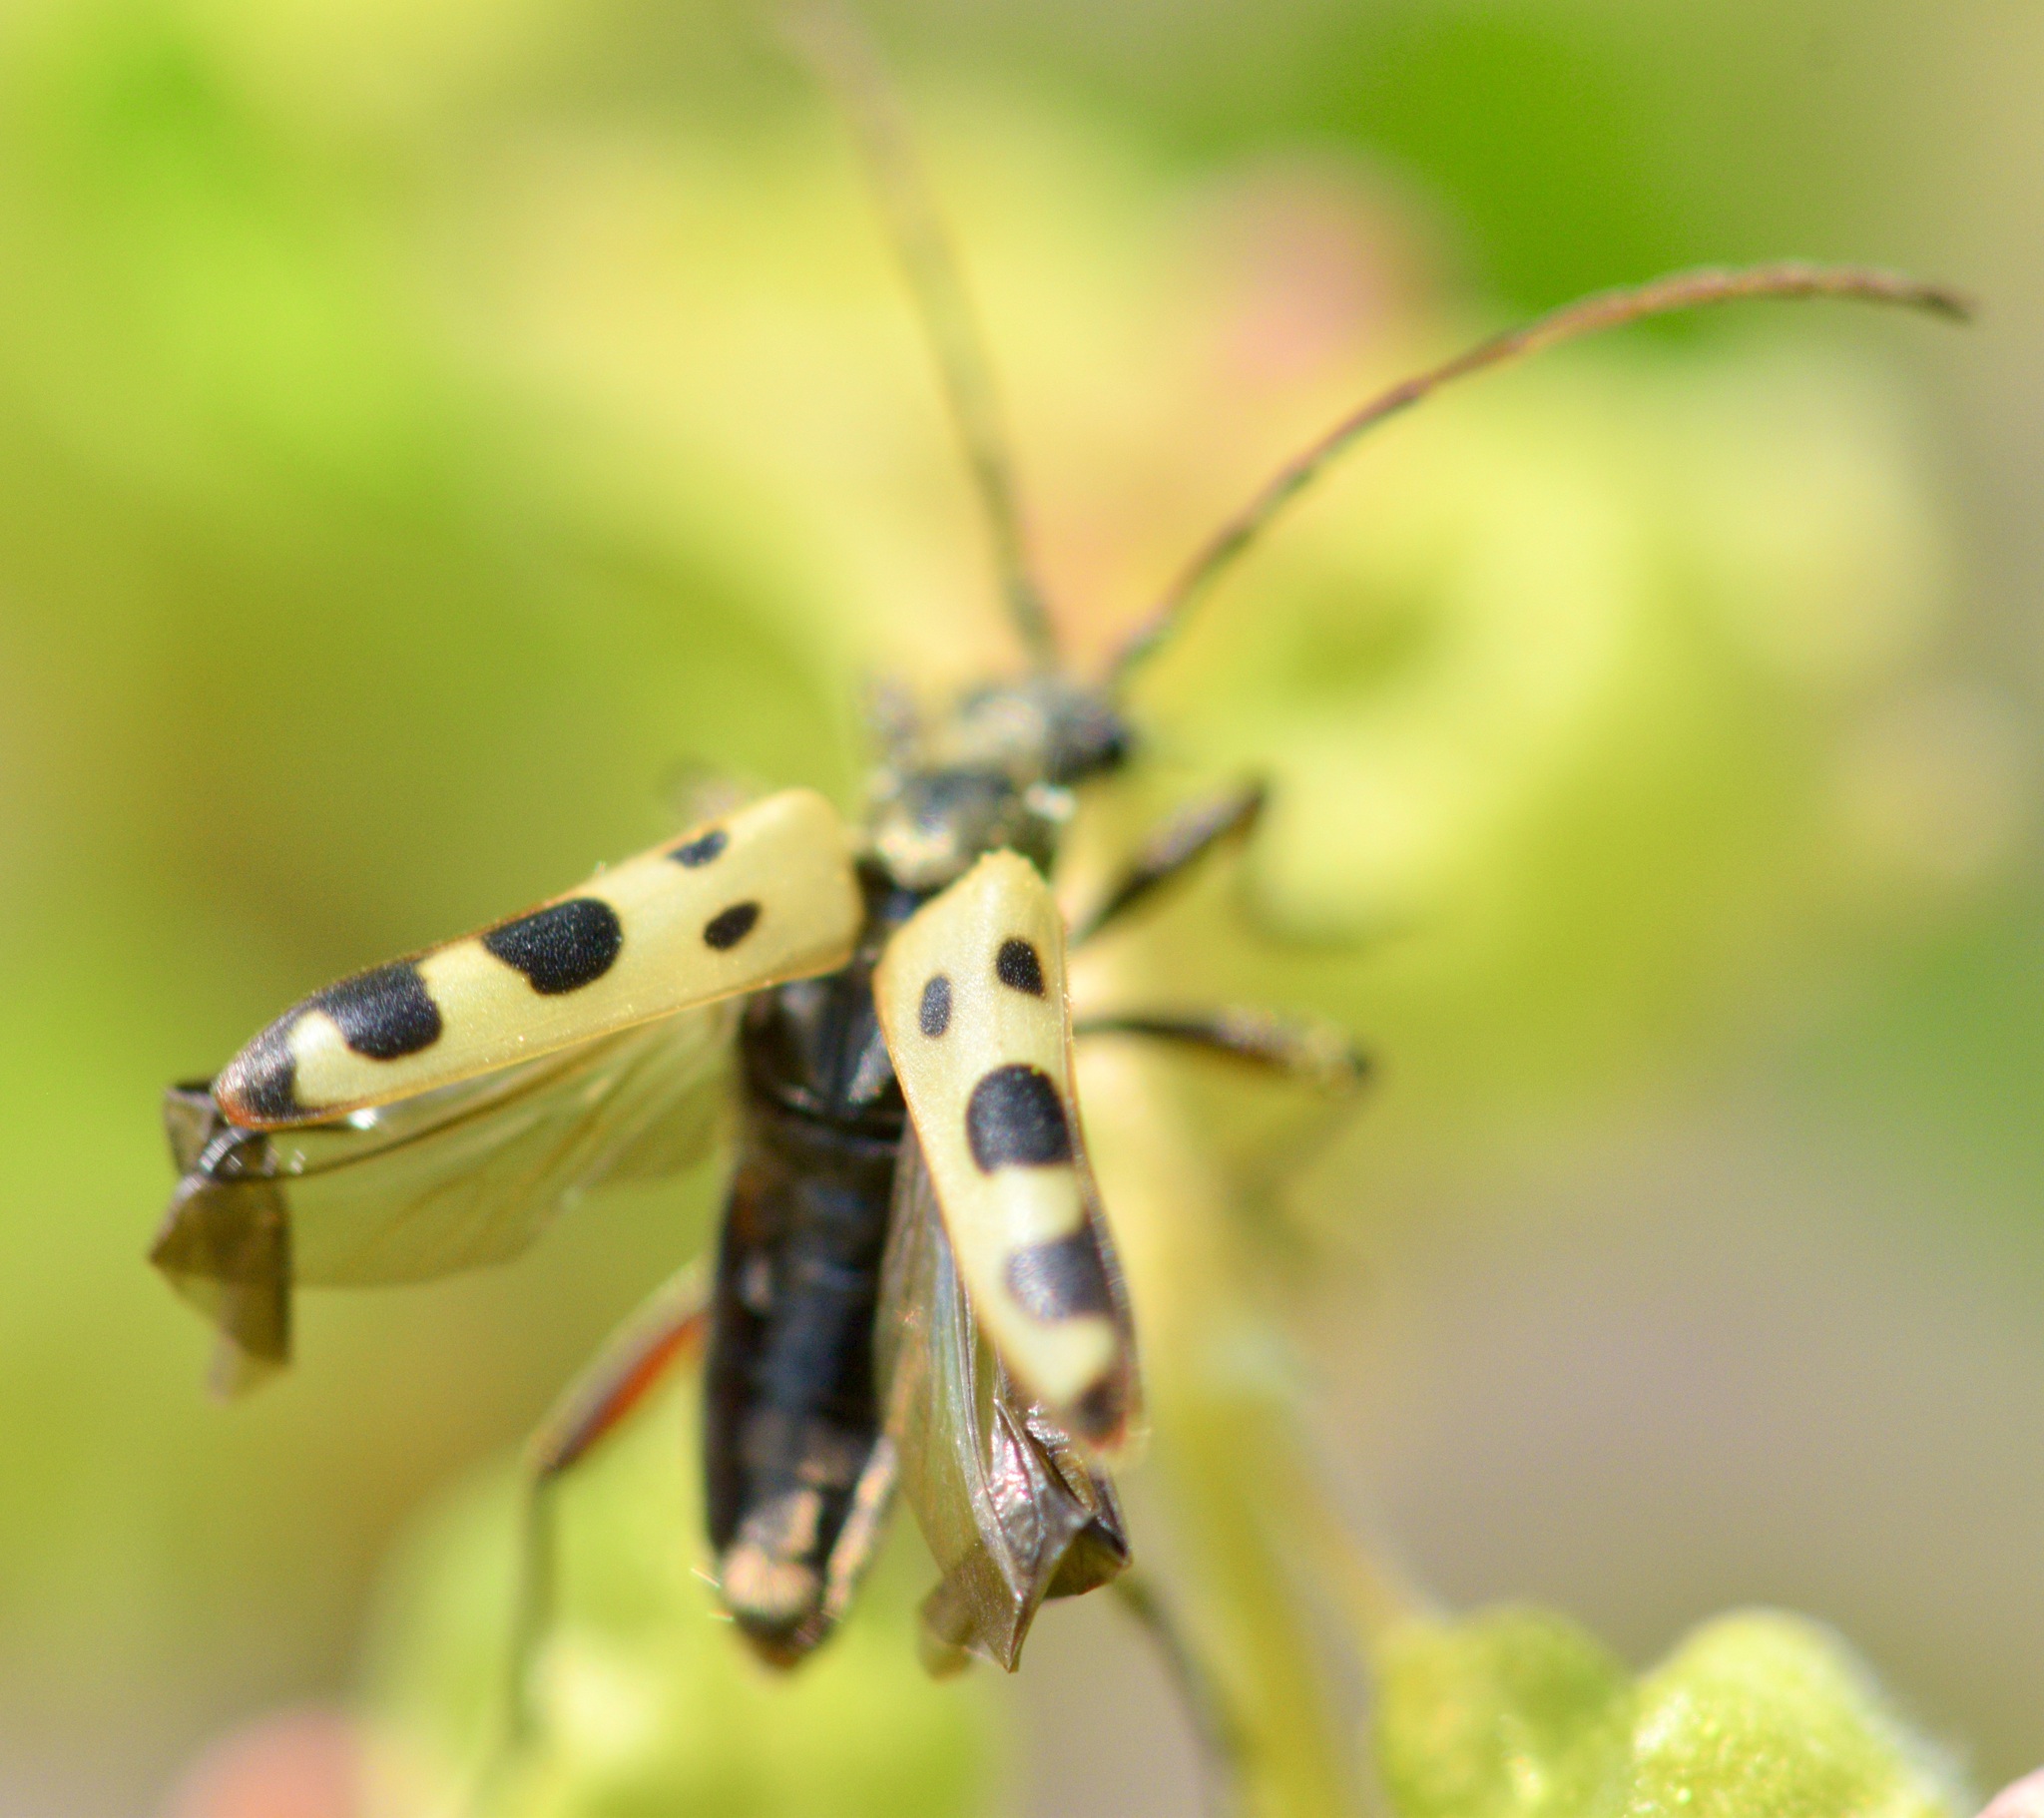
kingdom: Animalia
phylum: Arthropoda
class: Insecta
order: Coleoptera
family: Cerambycidae
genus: Evodinus
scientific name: Evodinus monticola
